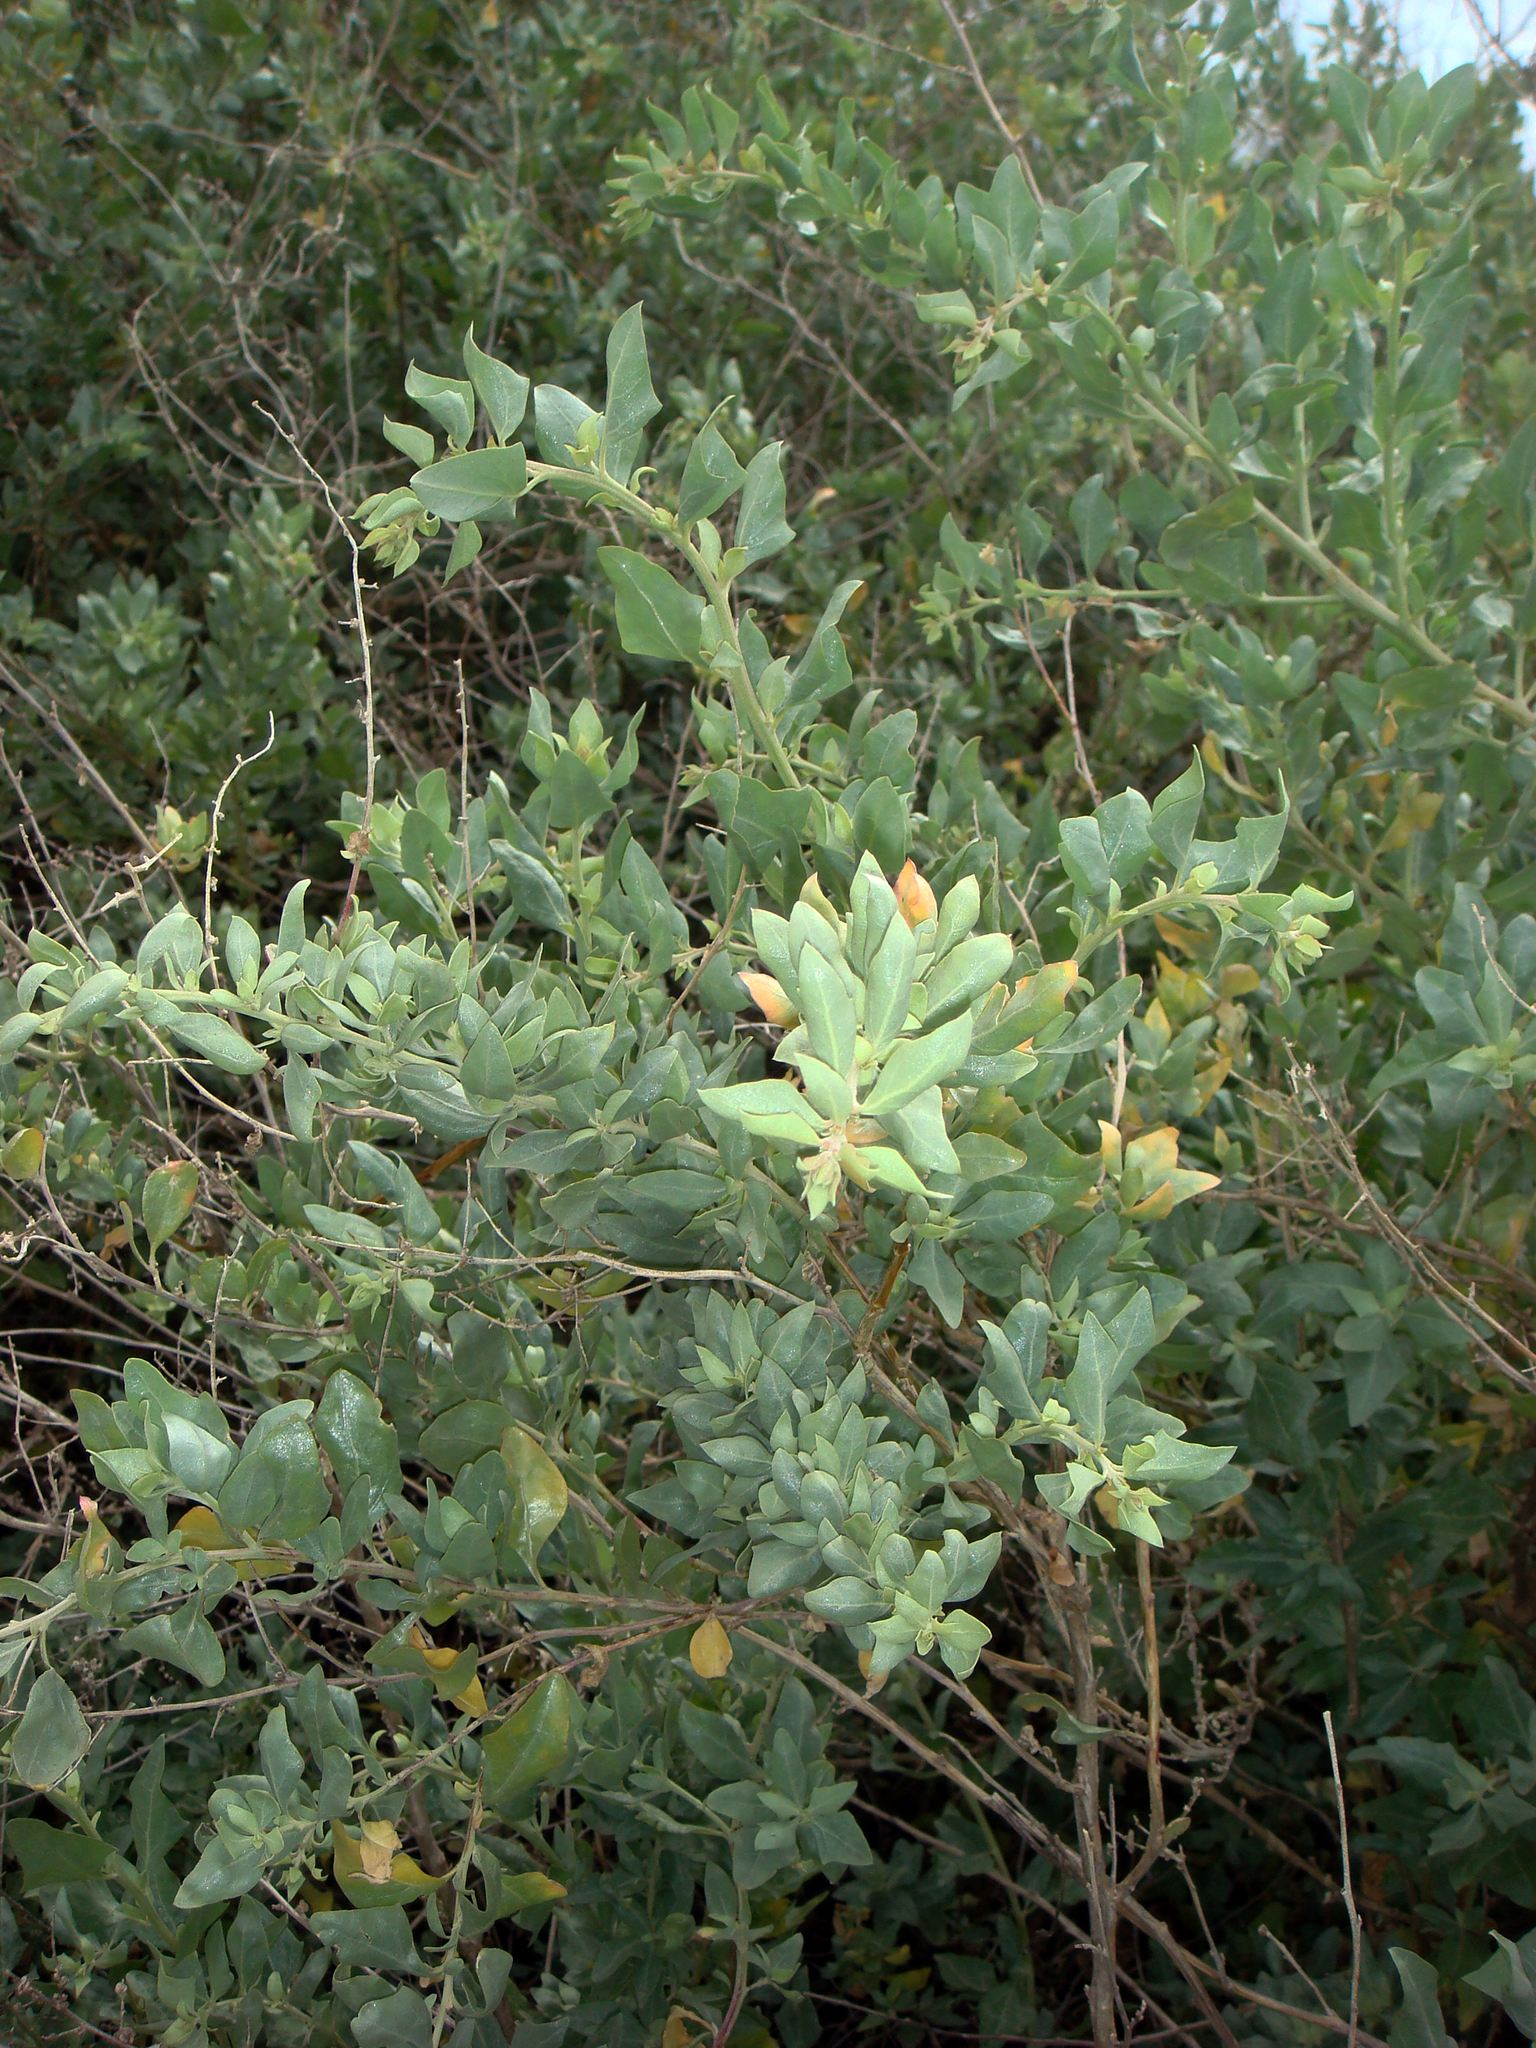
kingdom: Plantae
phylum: Tracheophyta
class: Magnoliopsida
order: Caryophyllales
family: Amaranthaceae
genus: Atriplex
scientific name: Atriplex halimus
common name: Shrubby orache
